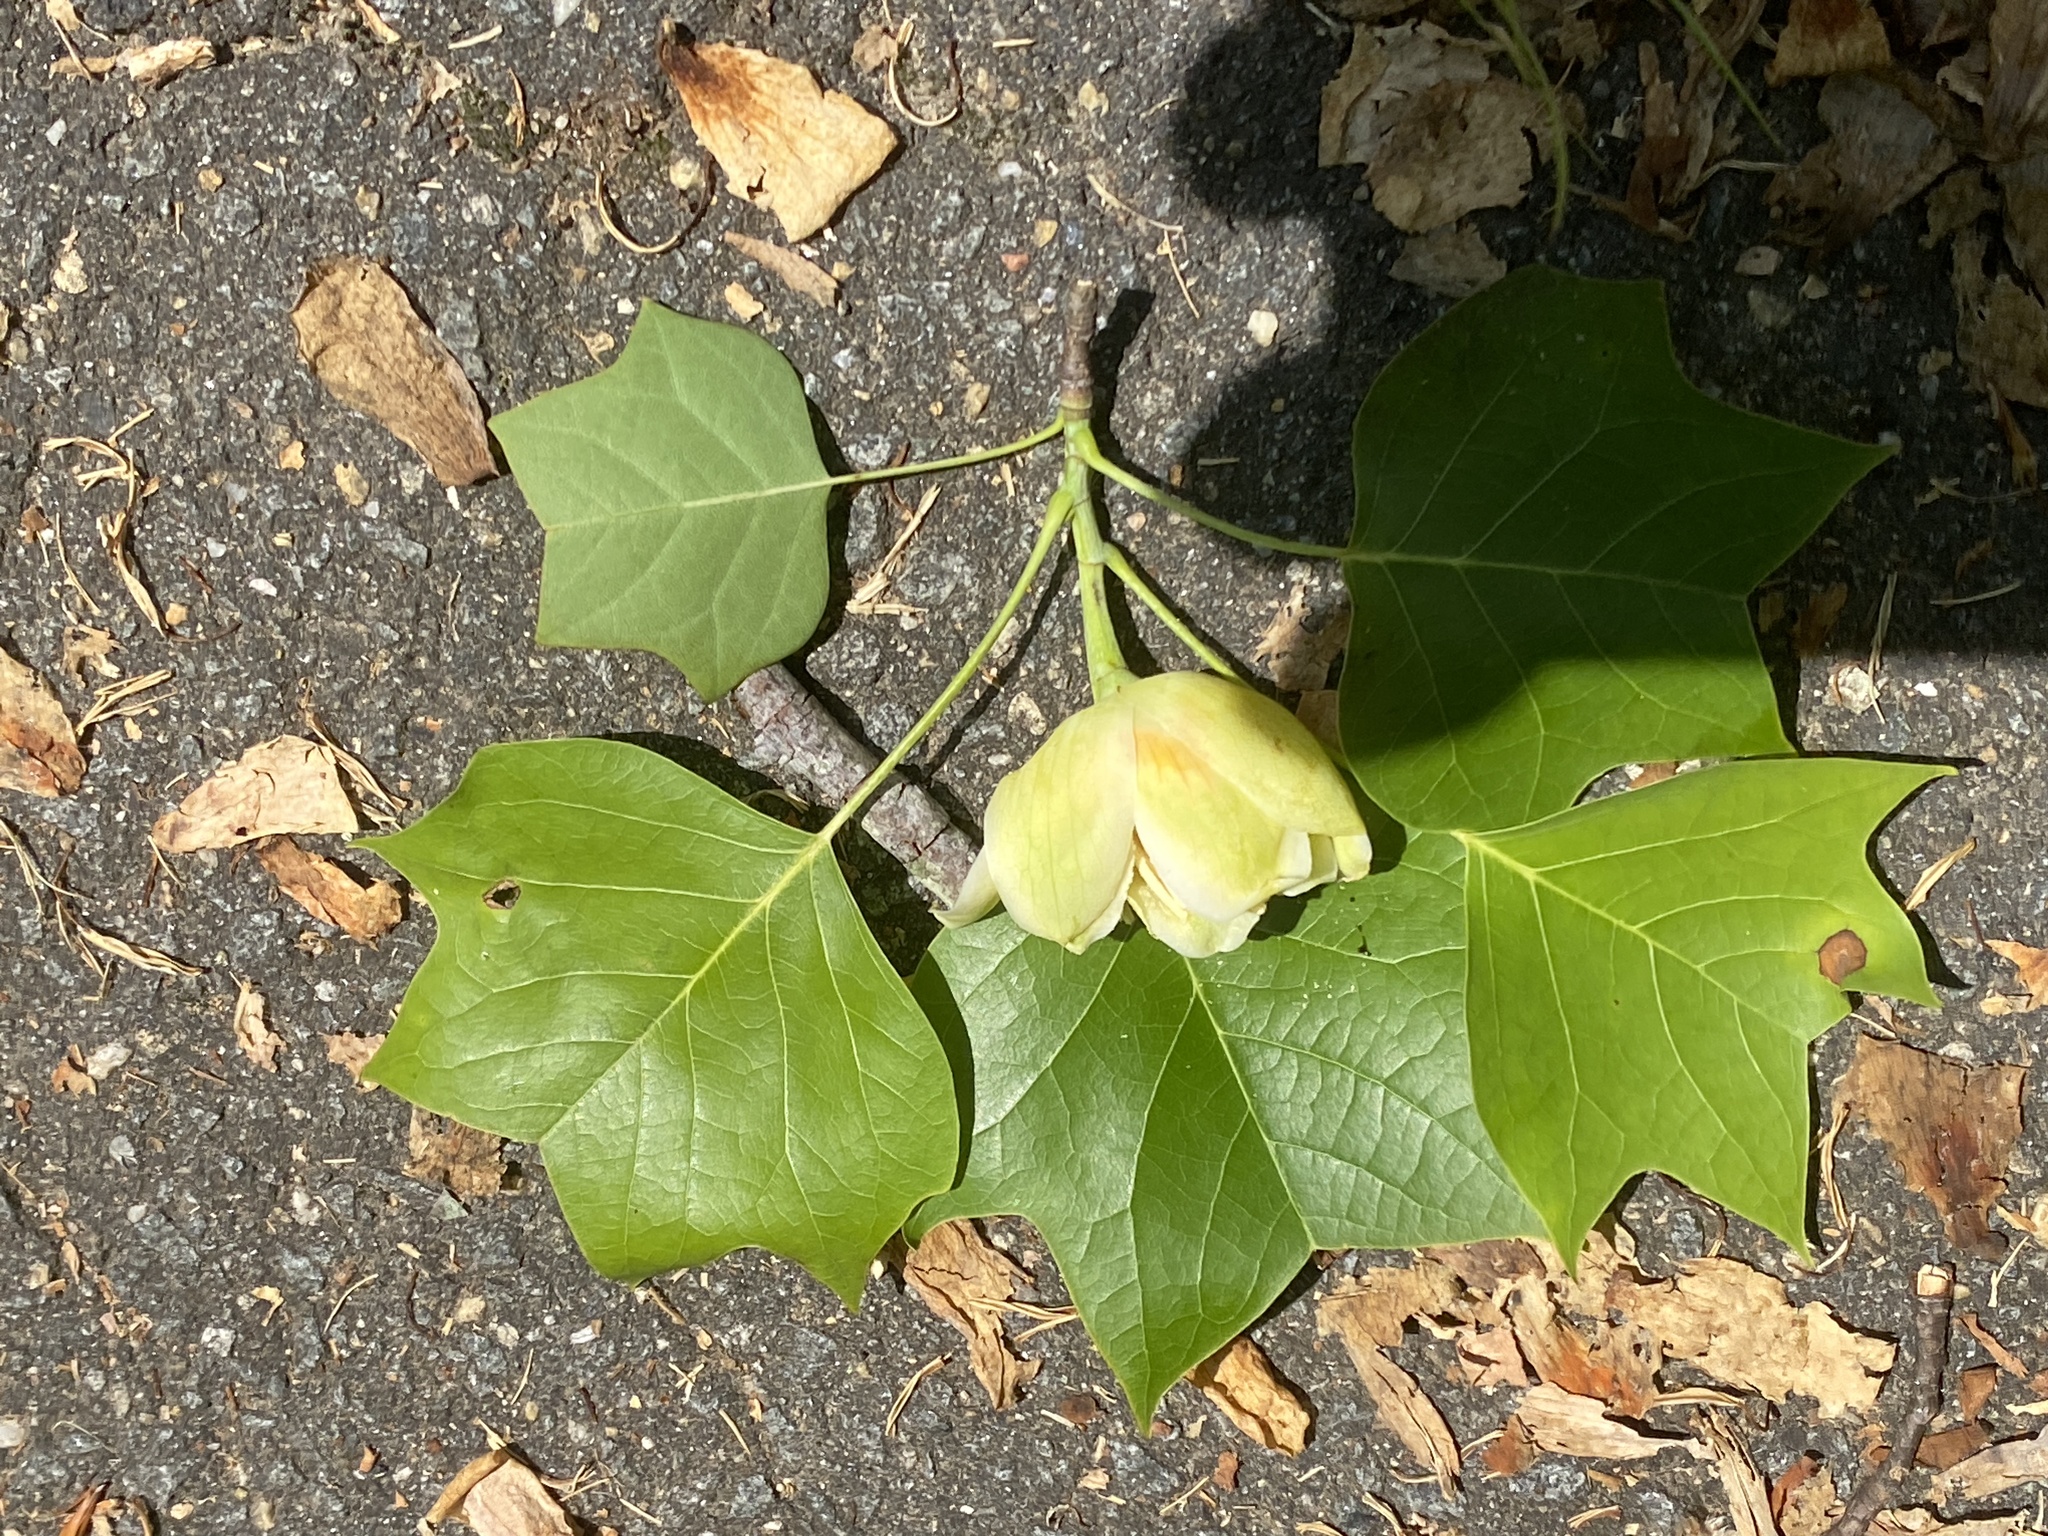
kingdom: Plantae
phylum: Tracheophyta
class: Magnoliopsida
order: Magnoliales
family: Magnoliaceae
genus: Liriodendron
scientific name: Liriodendron tulipifera
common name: Tulip tree
